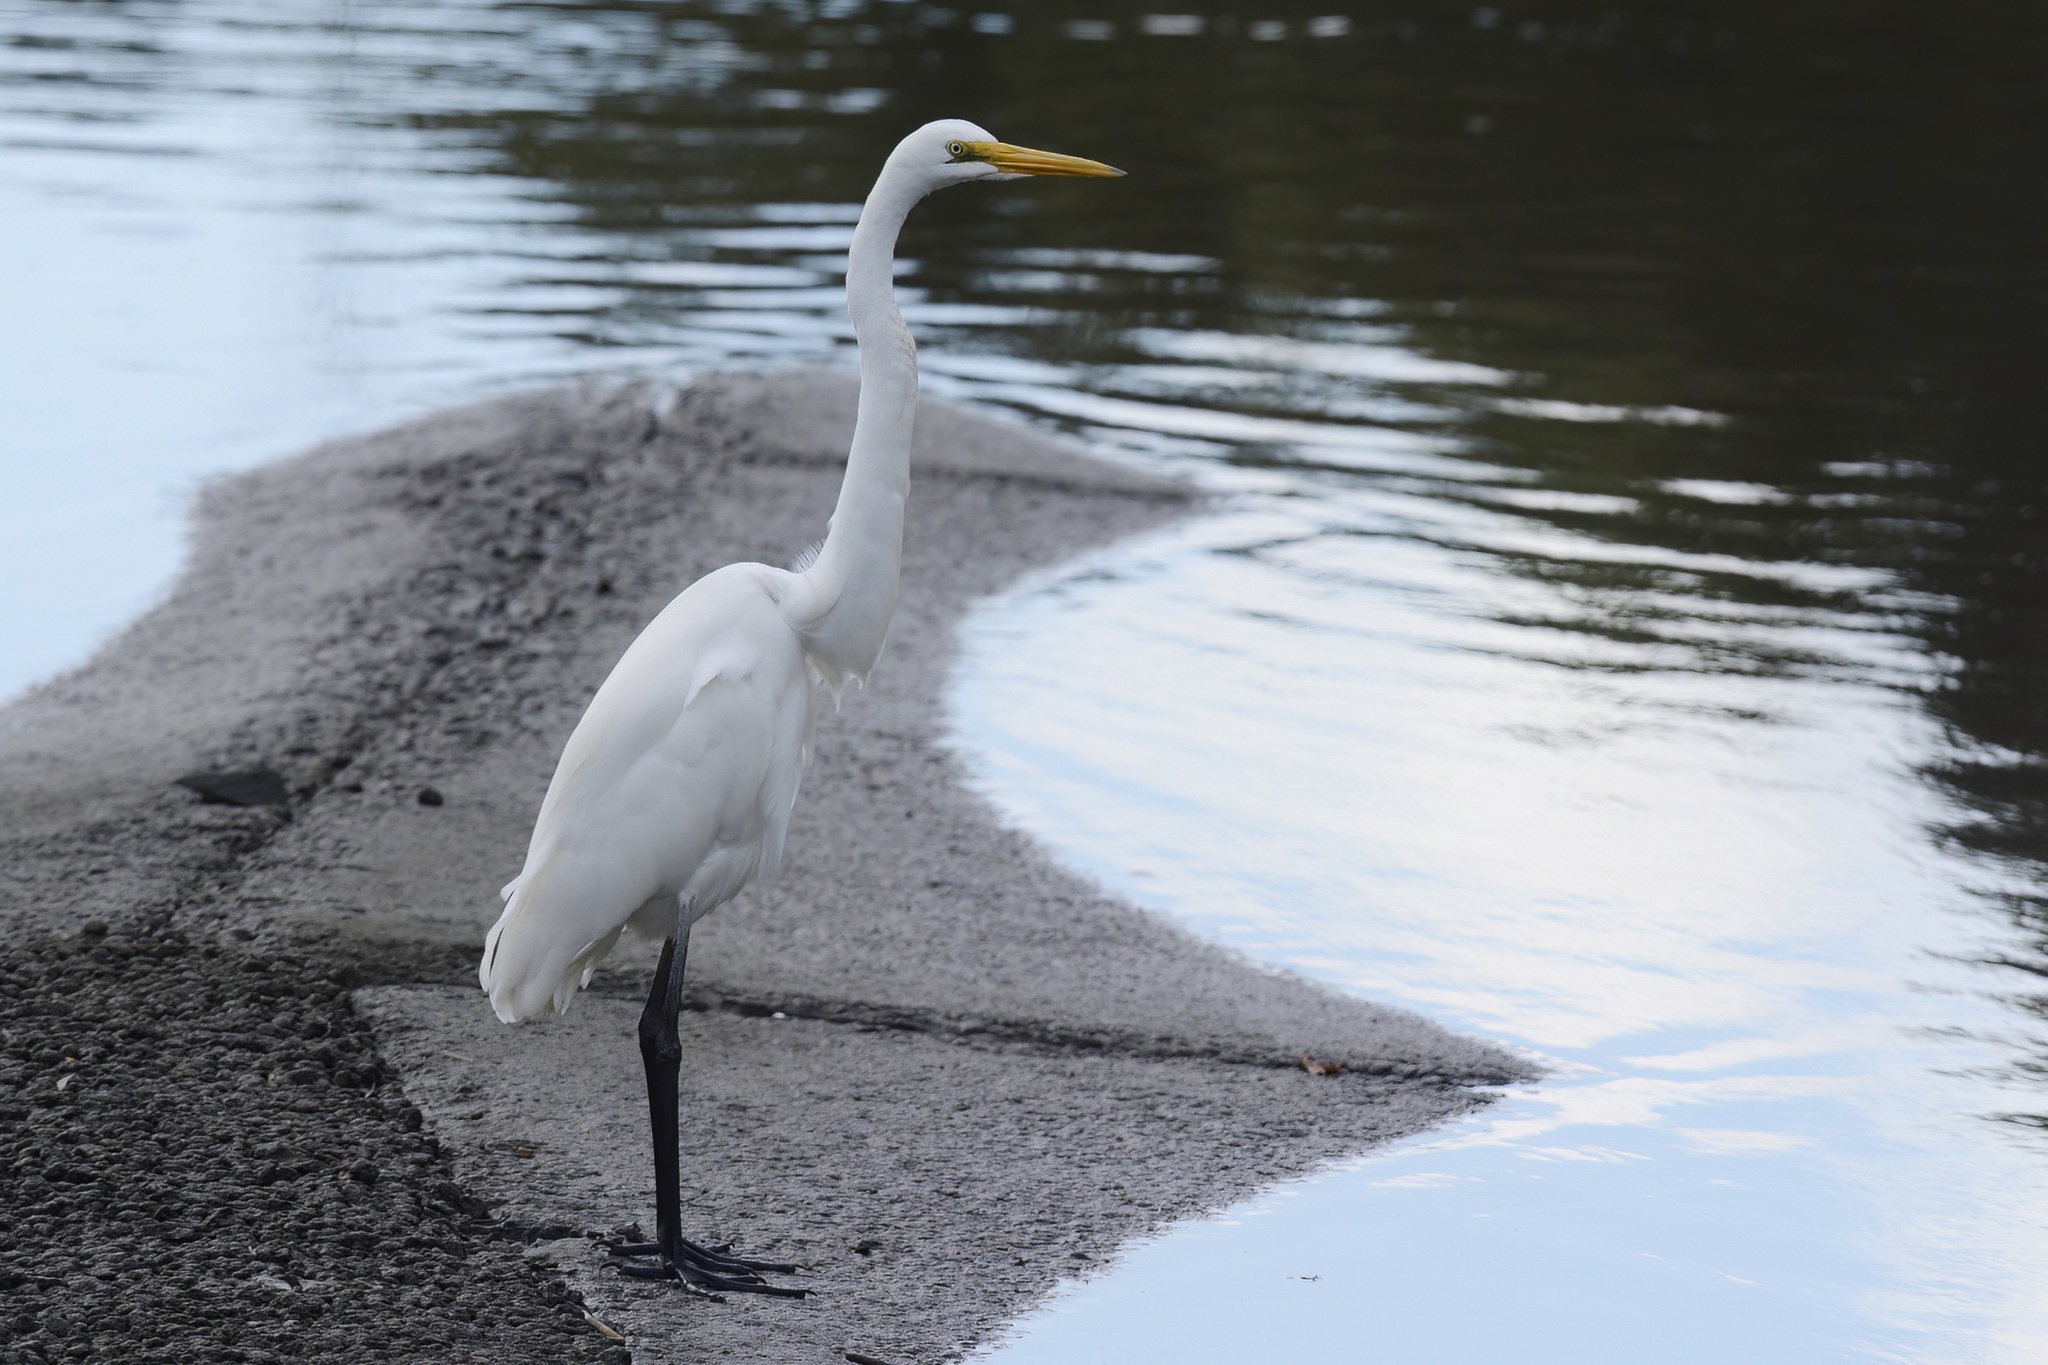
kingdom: Animalia
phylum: Chordata
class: Aves
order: Pelecaniformes
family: Ardeidae
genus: Ardea
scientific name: Ardea alba
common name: Great egret
